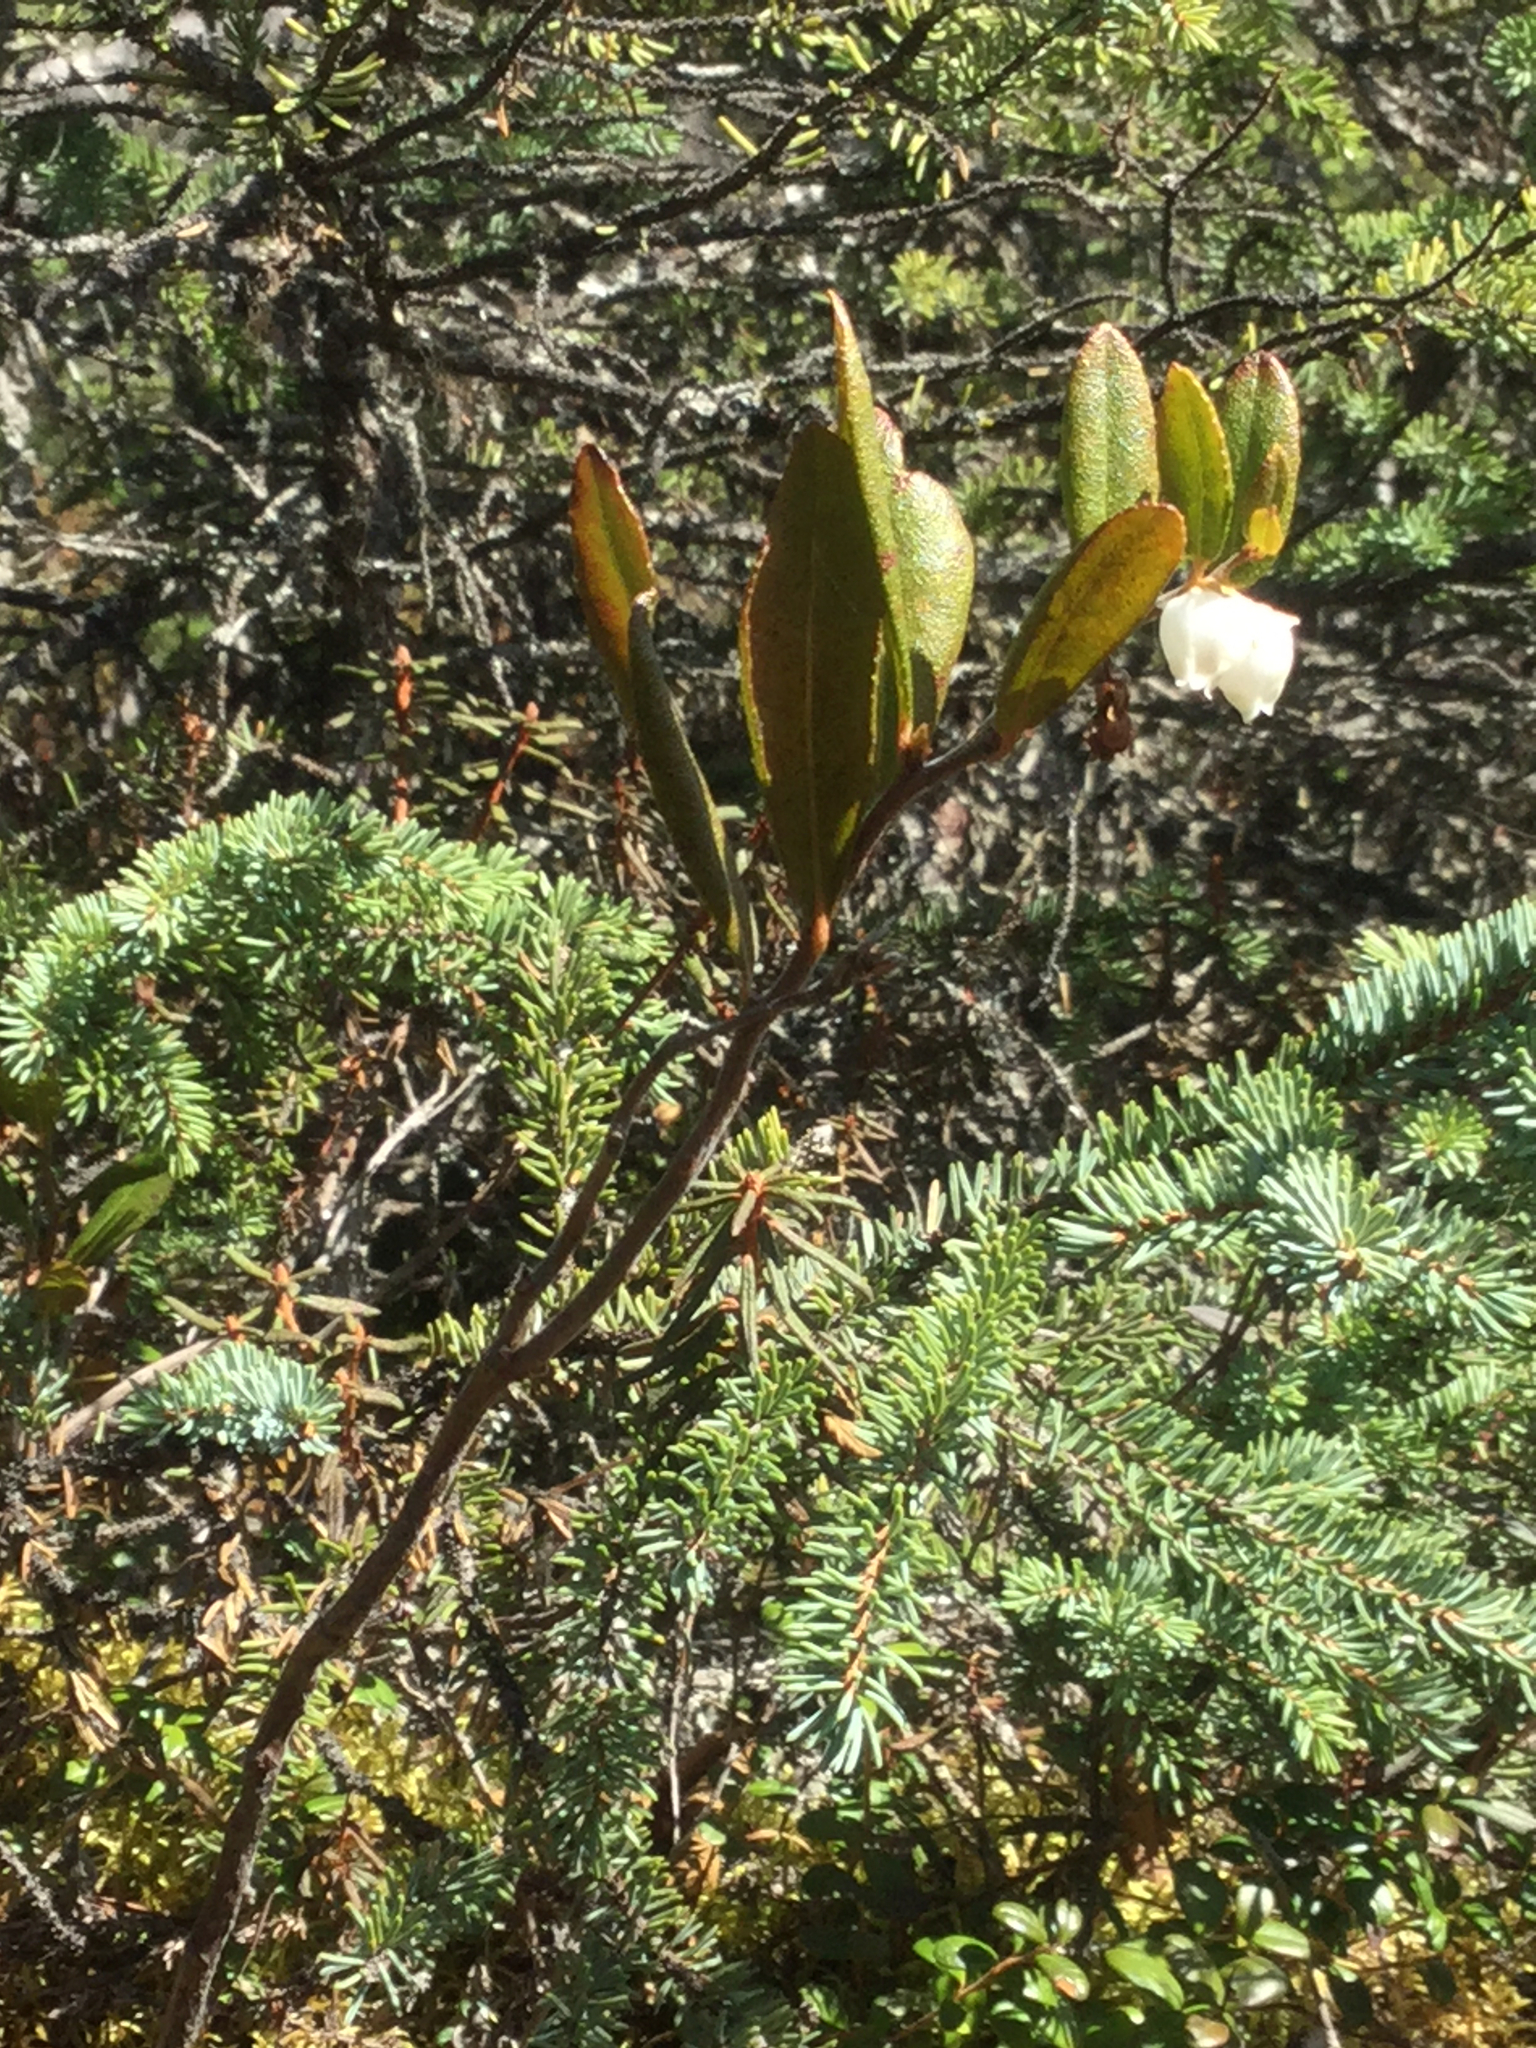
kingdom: Plantae
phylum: Tracheophyta
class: Magnoliopsida
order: Ericales
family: Ericaceae
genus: Chamaedaphne
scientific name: Chamaedaphne calyculata
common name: Leatherleaf
